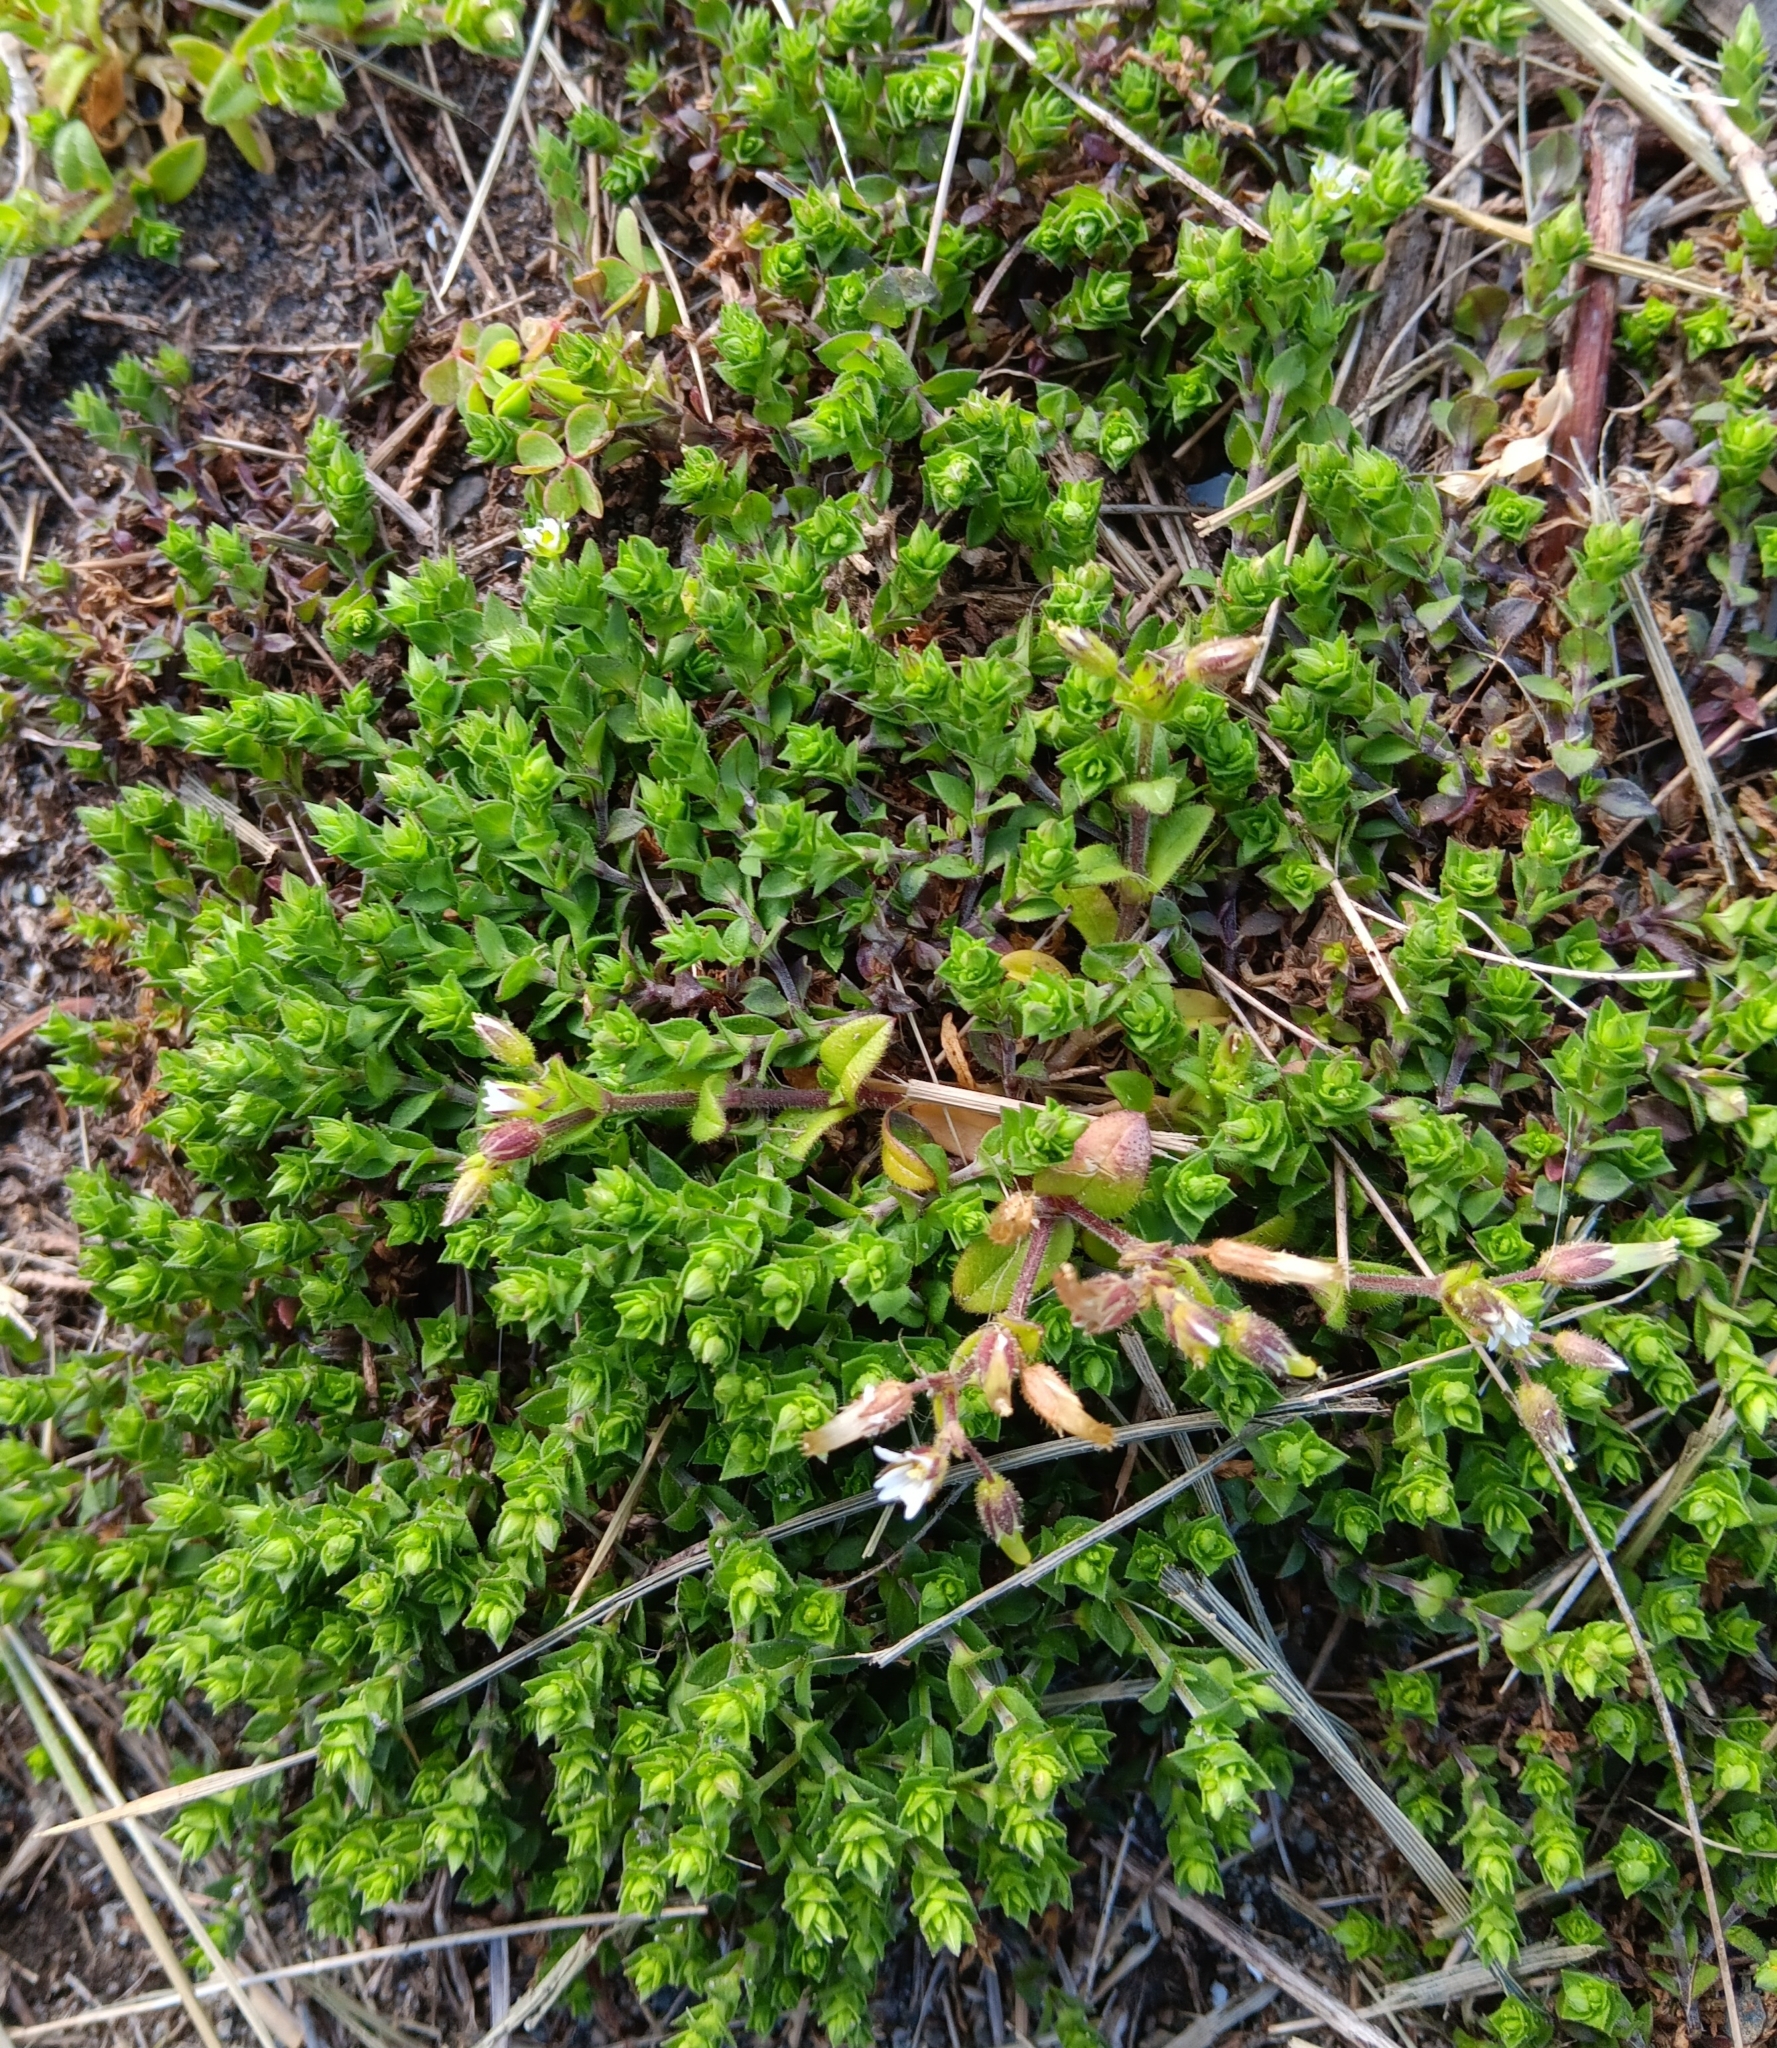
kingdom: Plantae
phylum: Tracheophyta
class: Magnoliopsida
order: Caryophyllales
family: Caryophyllaceae
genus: Arenaria
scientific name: Arenaria serpyllifolia
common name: Thyme-leaved sandwort
